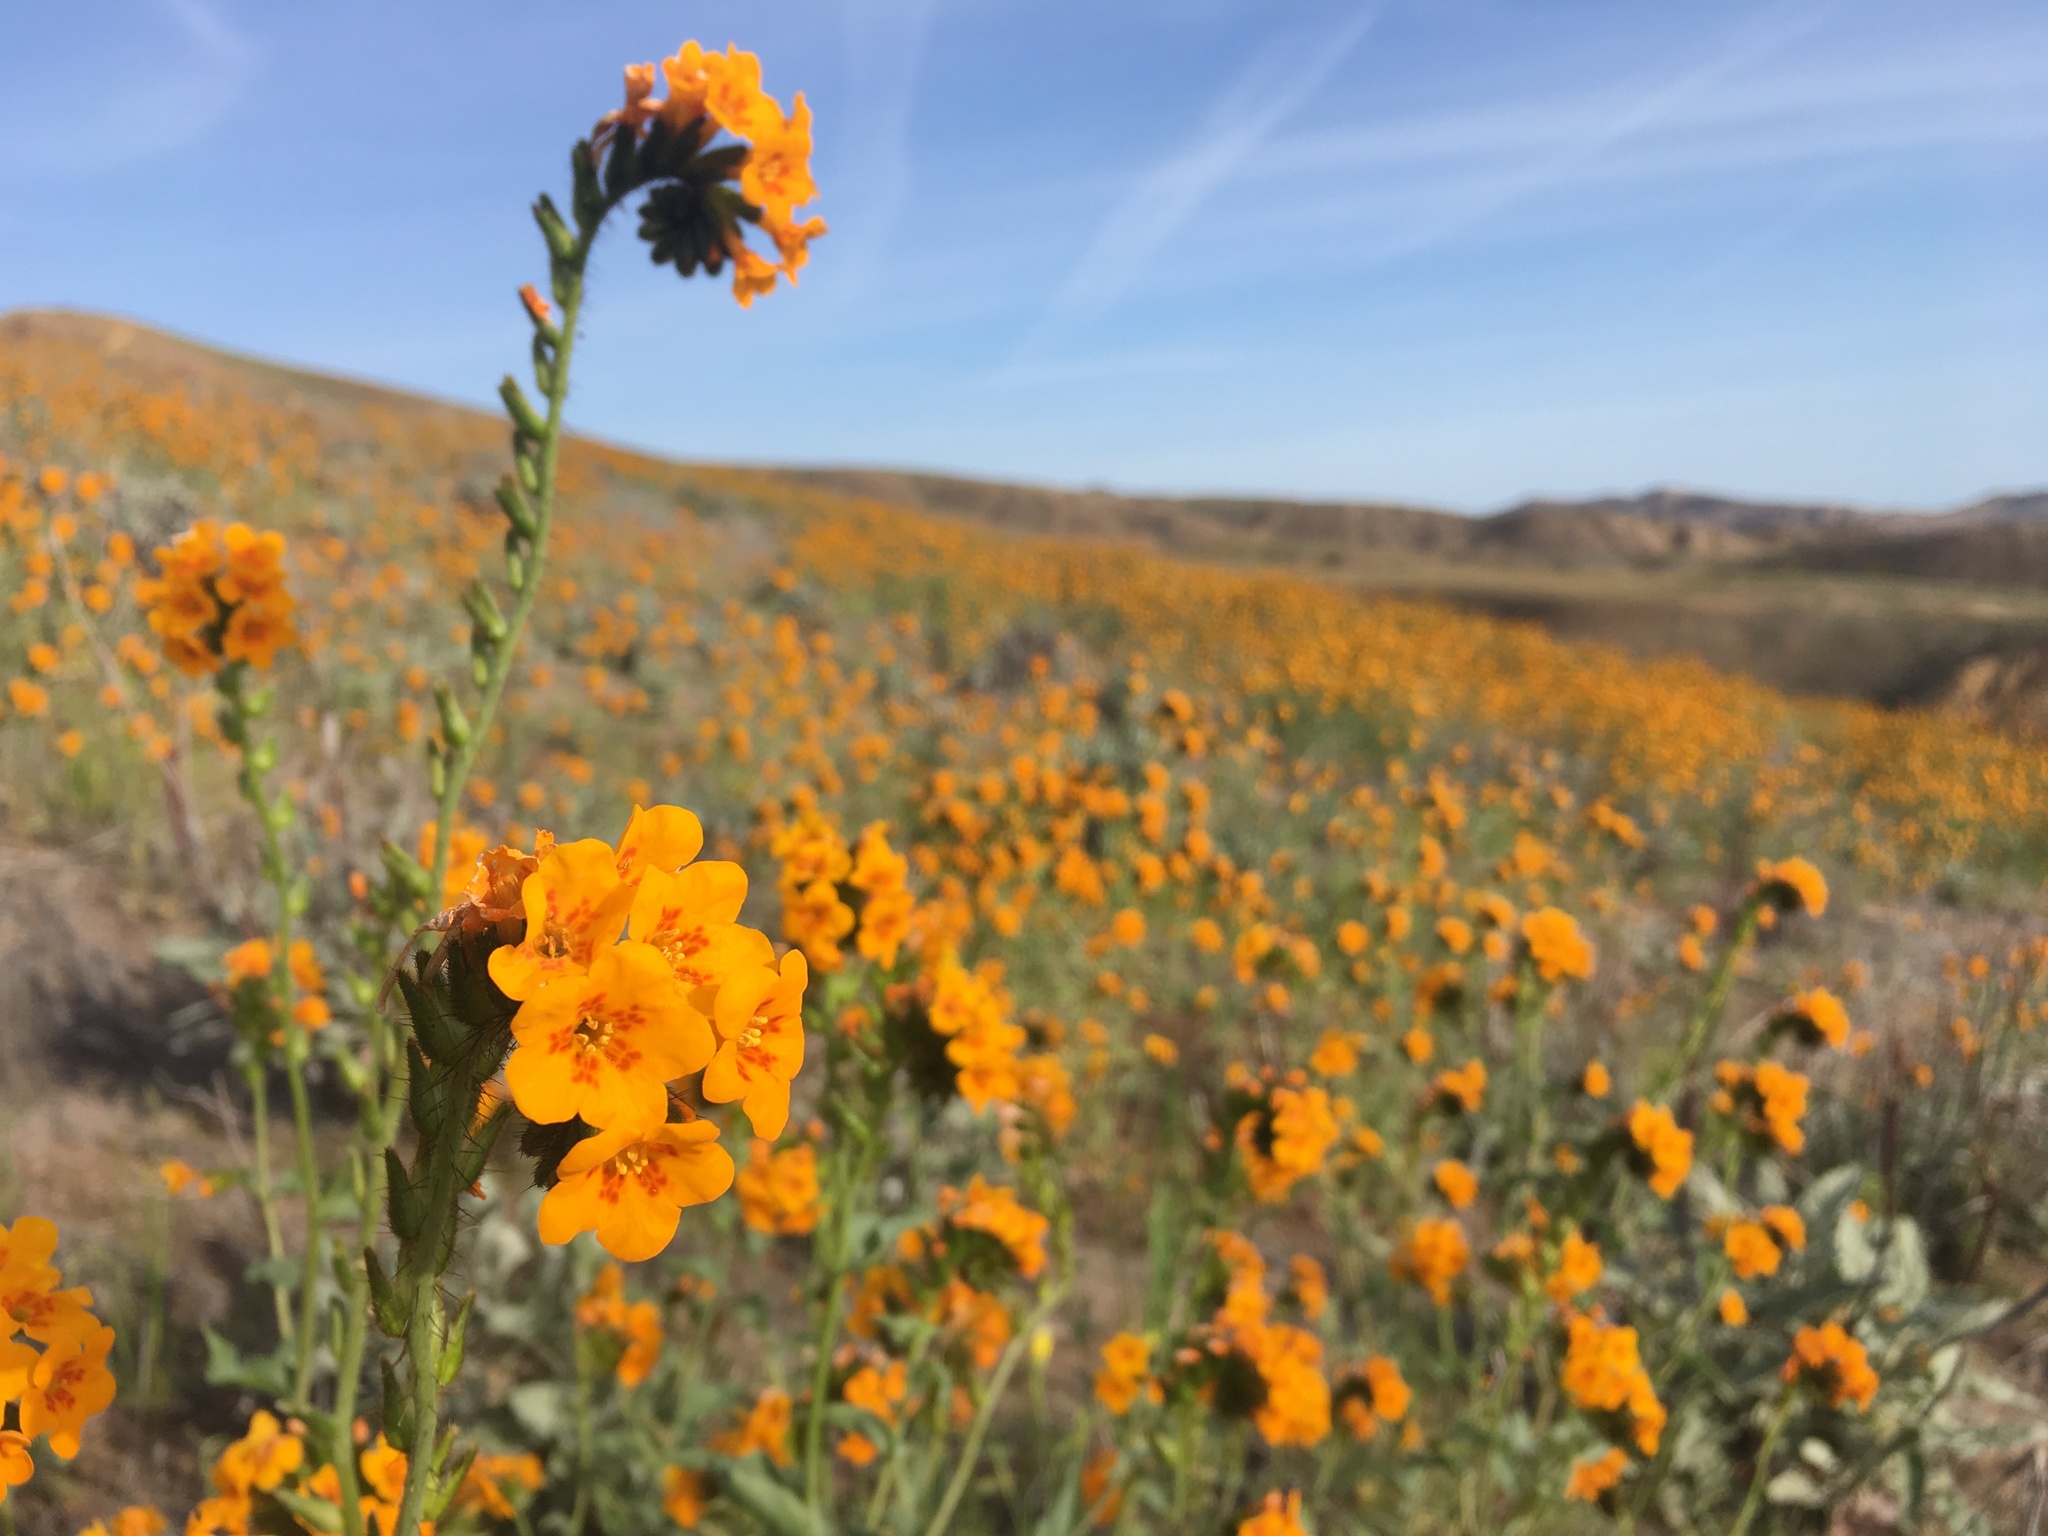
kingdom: Plantae
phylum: Tracheophyta
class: Magnoliopsida
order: Boraginales
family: Boraginaceae
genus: Amsinckia
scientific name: Amsinckia vernicosa
